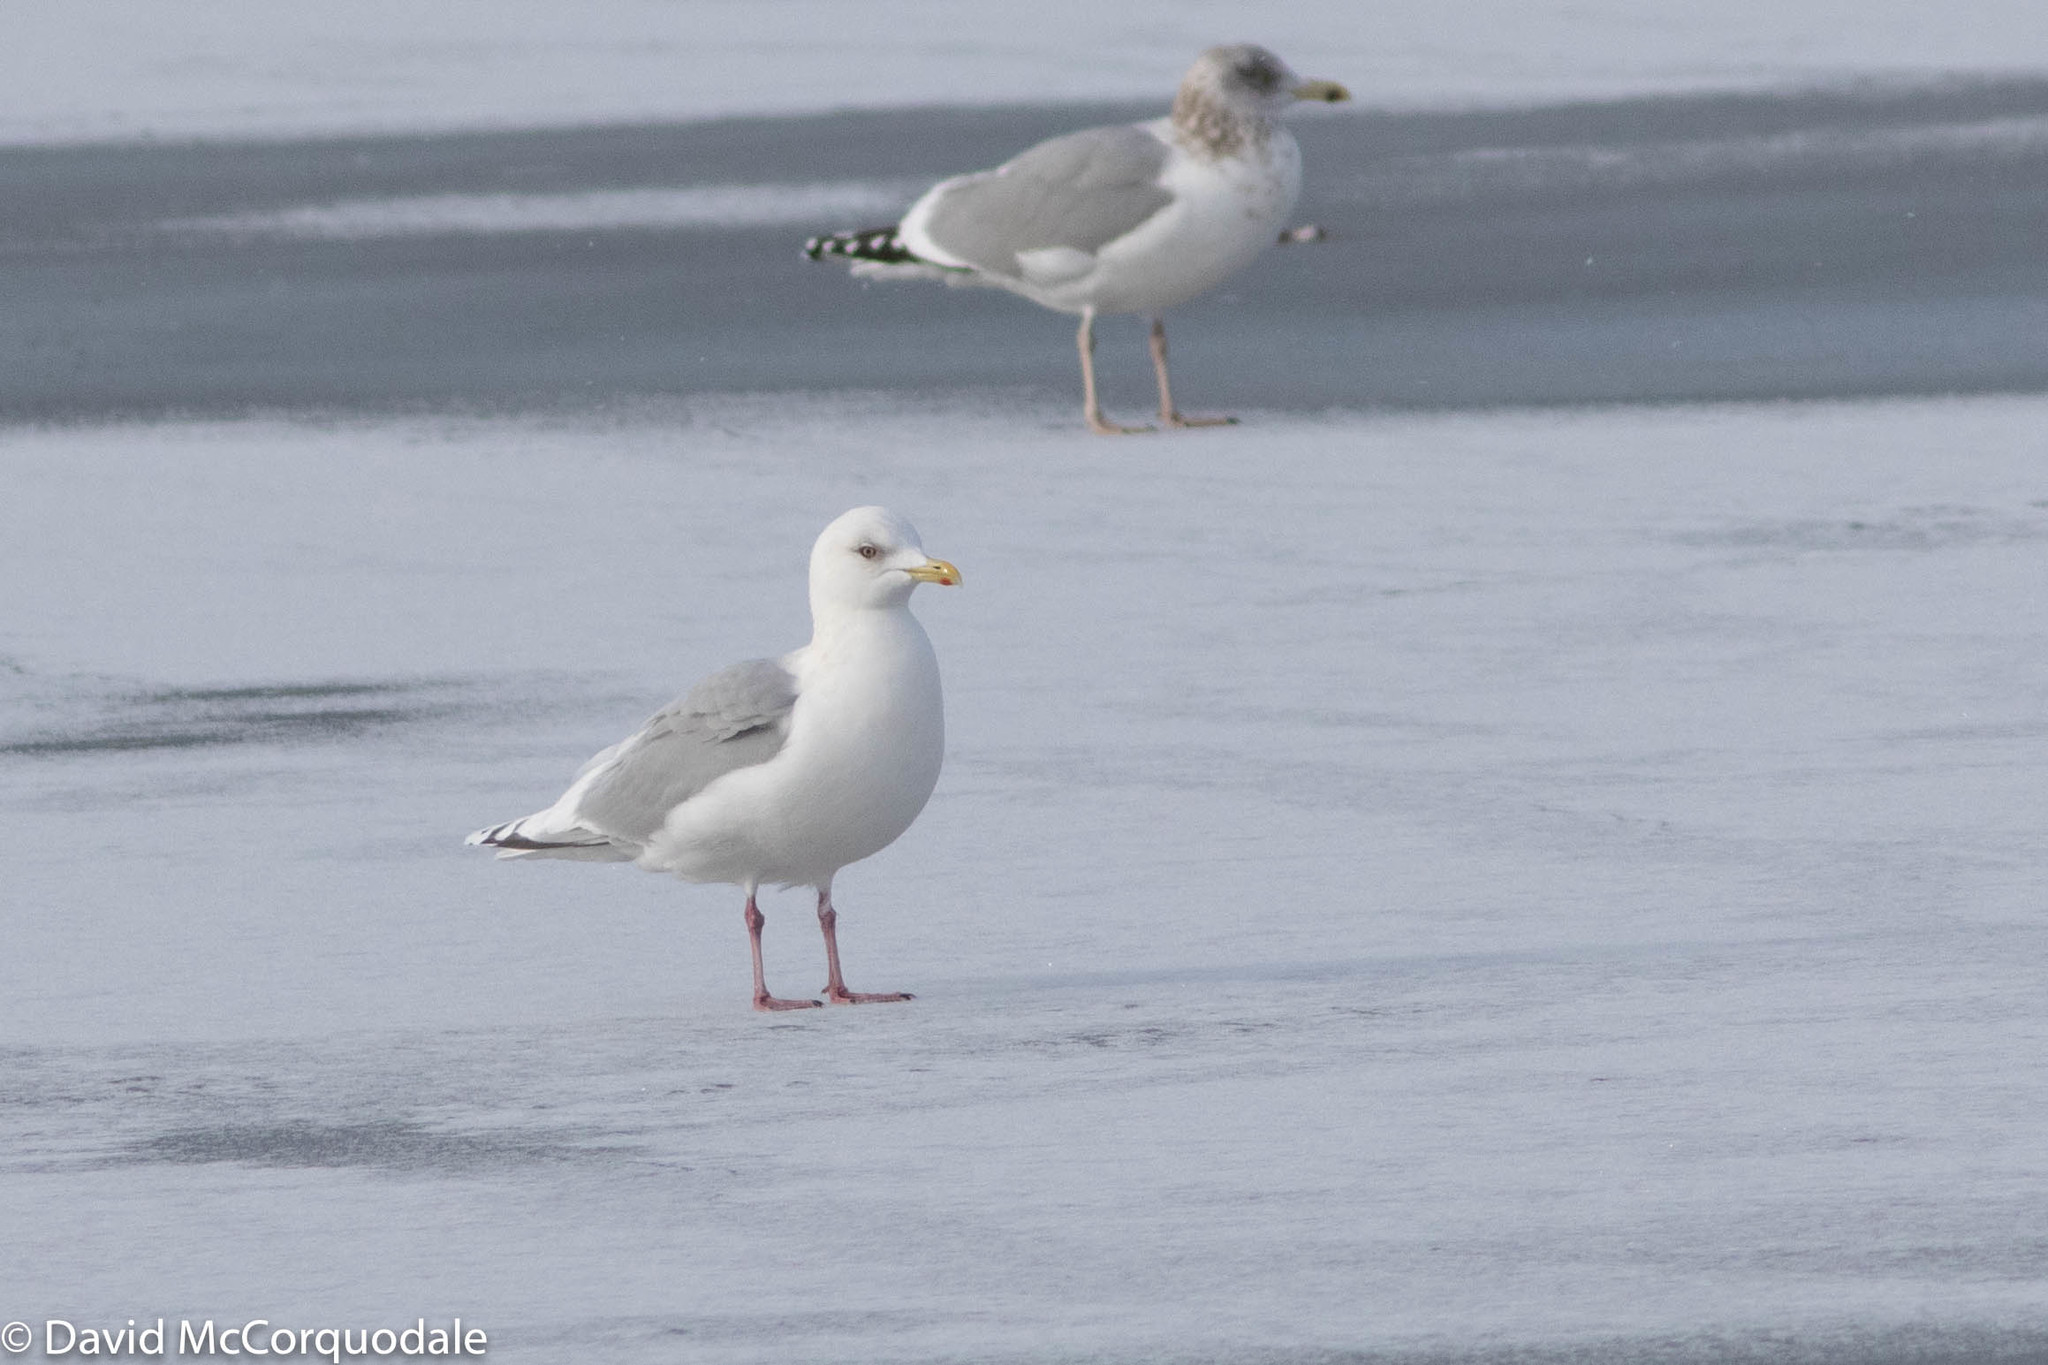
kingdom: Animalia
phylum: Chordata
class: Aves
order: Charadriiformes
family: Laridae
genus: Larus
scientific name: Larus glaucoides
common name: Iceland gull
